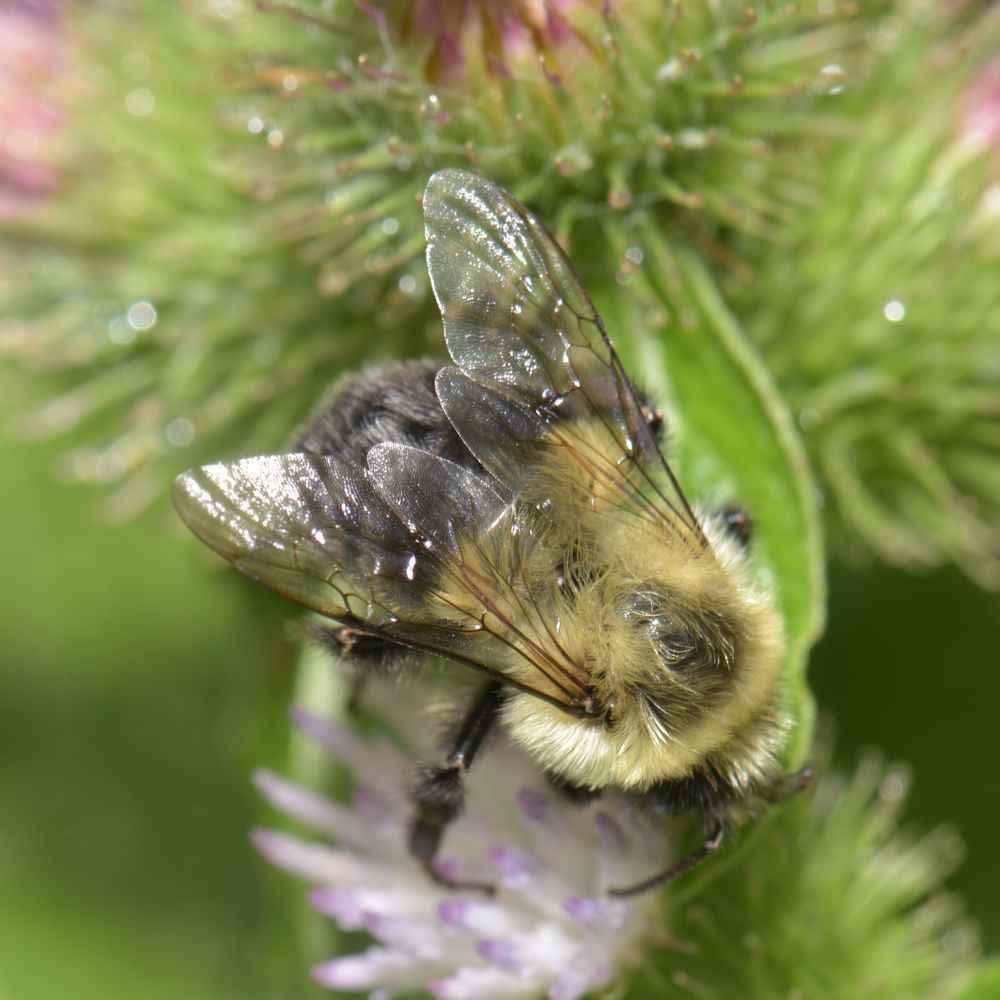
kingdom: Animalia
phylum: Arthropoda
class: Insecta
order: Hymenoptera
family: Apidae
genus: Bombus
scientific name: Bombus impatiens
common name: Common eastern bumble bee
